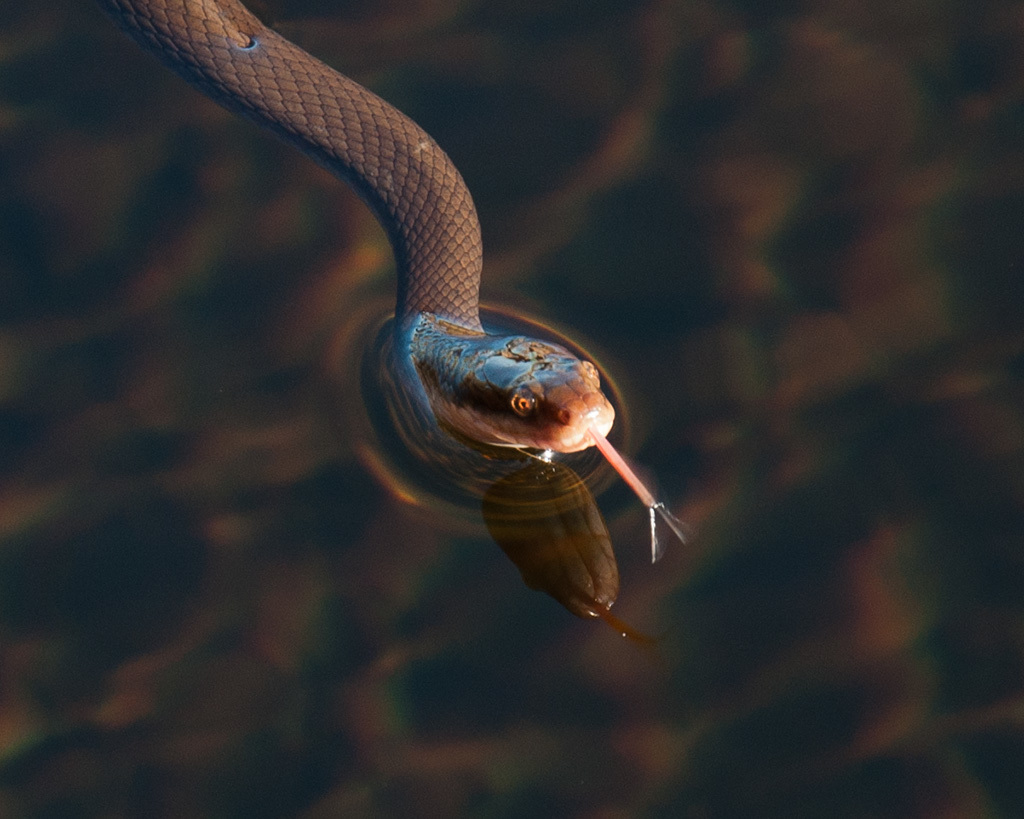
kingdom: Animalia
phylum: Chordata
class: Squamata
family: Lamprophiidae
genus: Lycodonomorphus
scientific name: Lycodonomorphus rufulus
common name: Brown water snake
